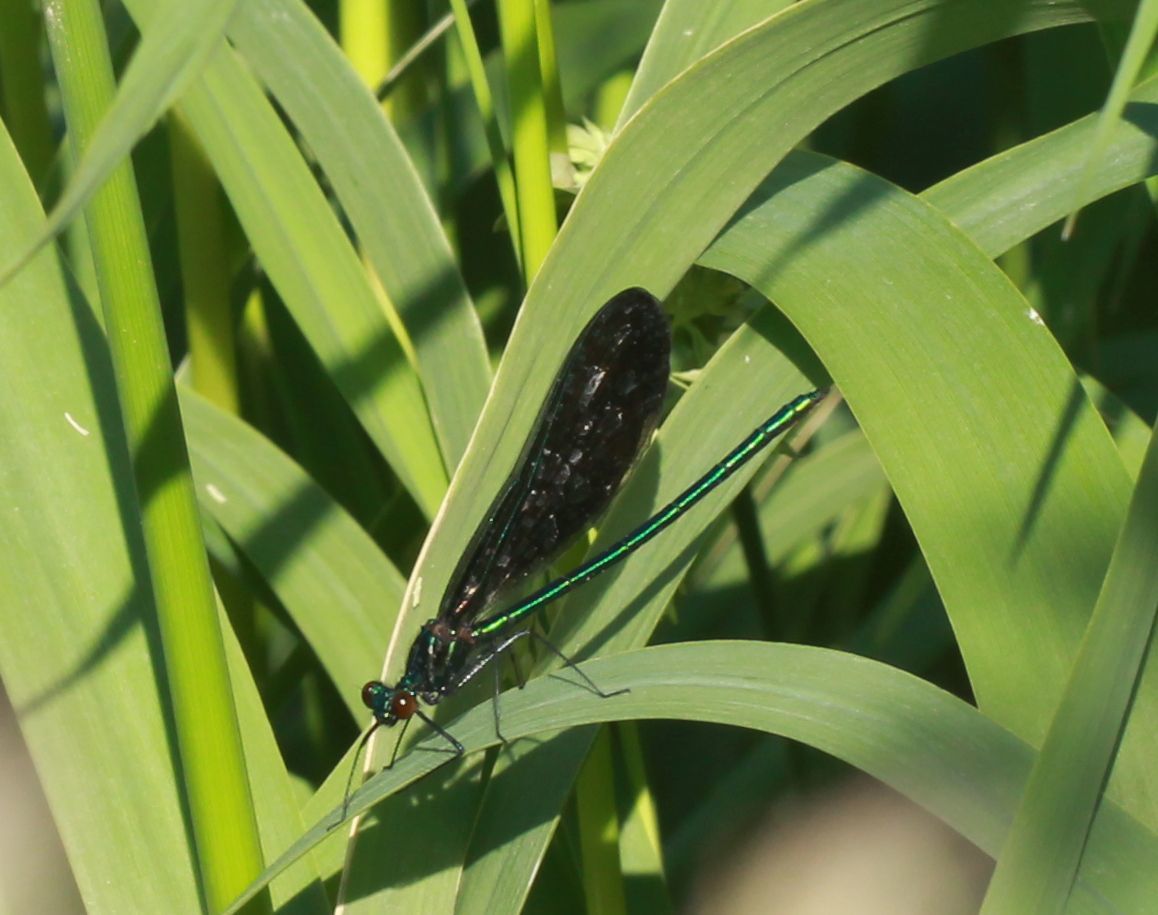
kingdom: Animalia
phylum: Arthropoda
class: Insecta
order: Odonata
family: Calopterygidae
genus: Calopteryx
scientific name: Calopteryx maculata
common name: Ebony jewelwing
